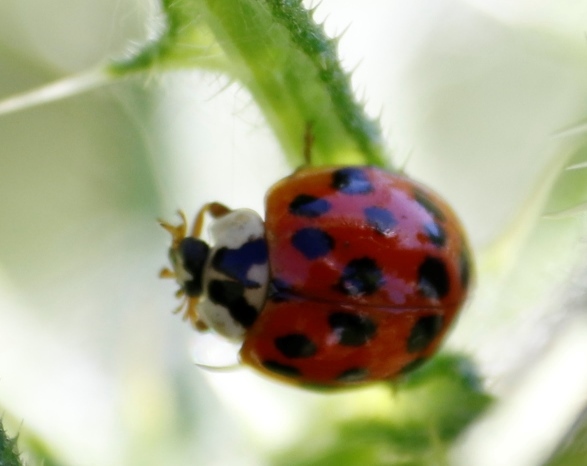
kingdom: Animalia
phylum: Arthropoda
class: Insecta
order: Coleoptera
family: Coccinellidae
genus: Harmonia
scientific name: Harmonia axyridis
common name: Harlequin ladybird
